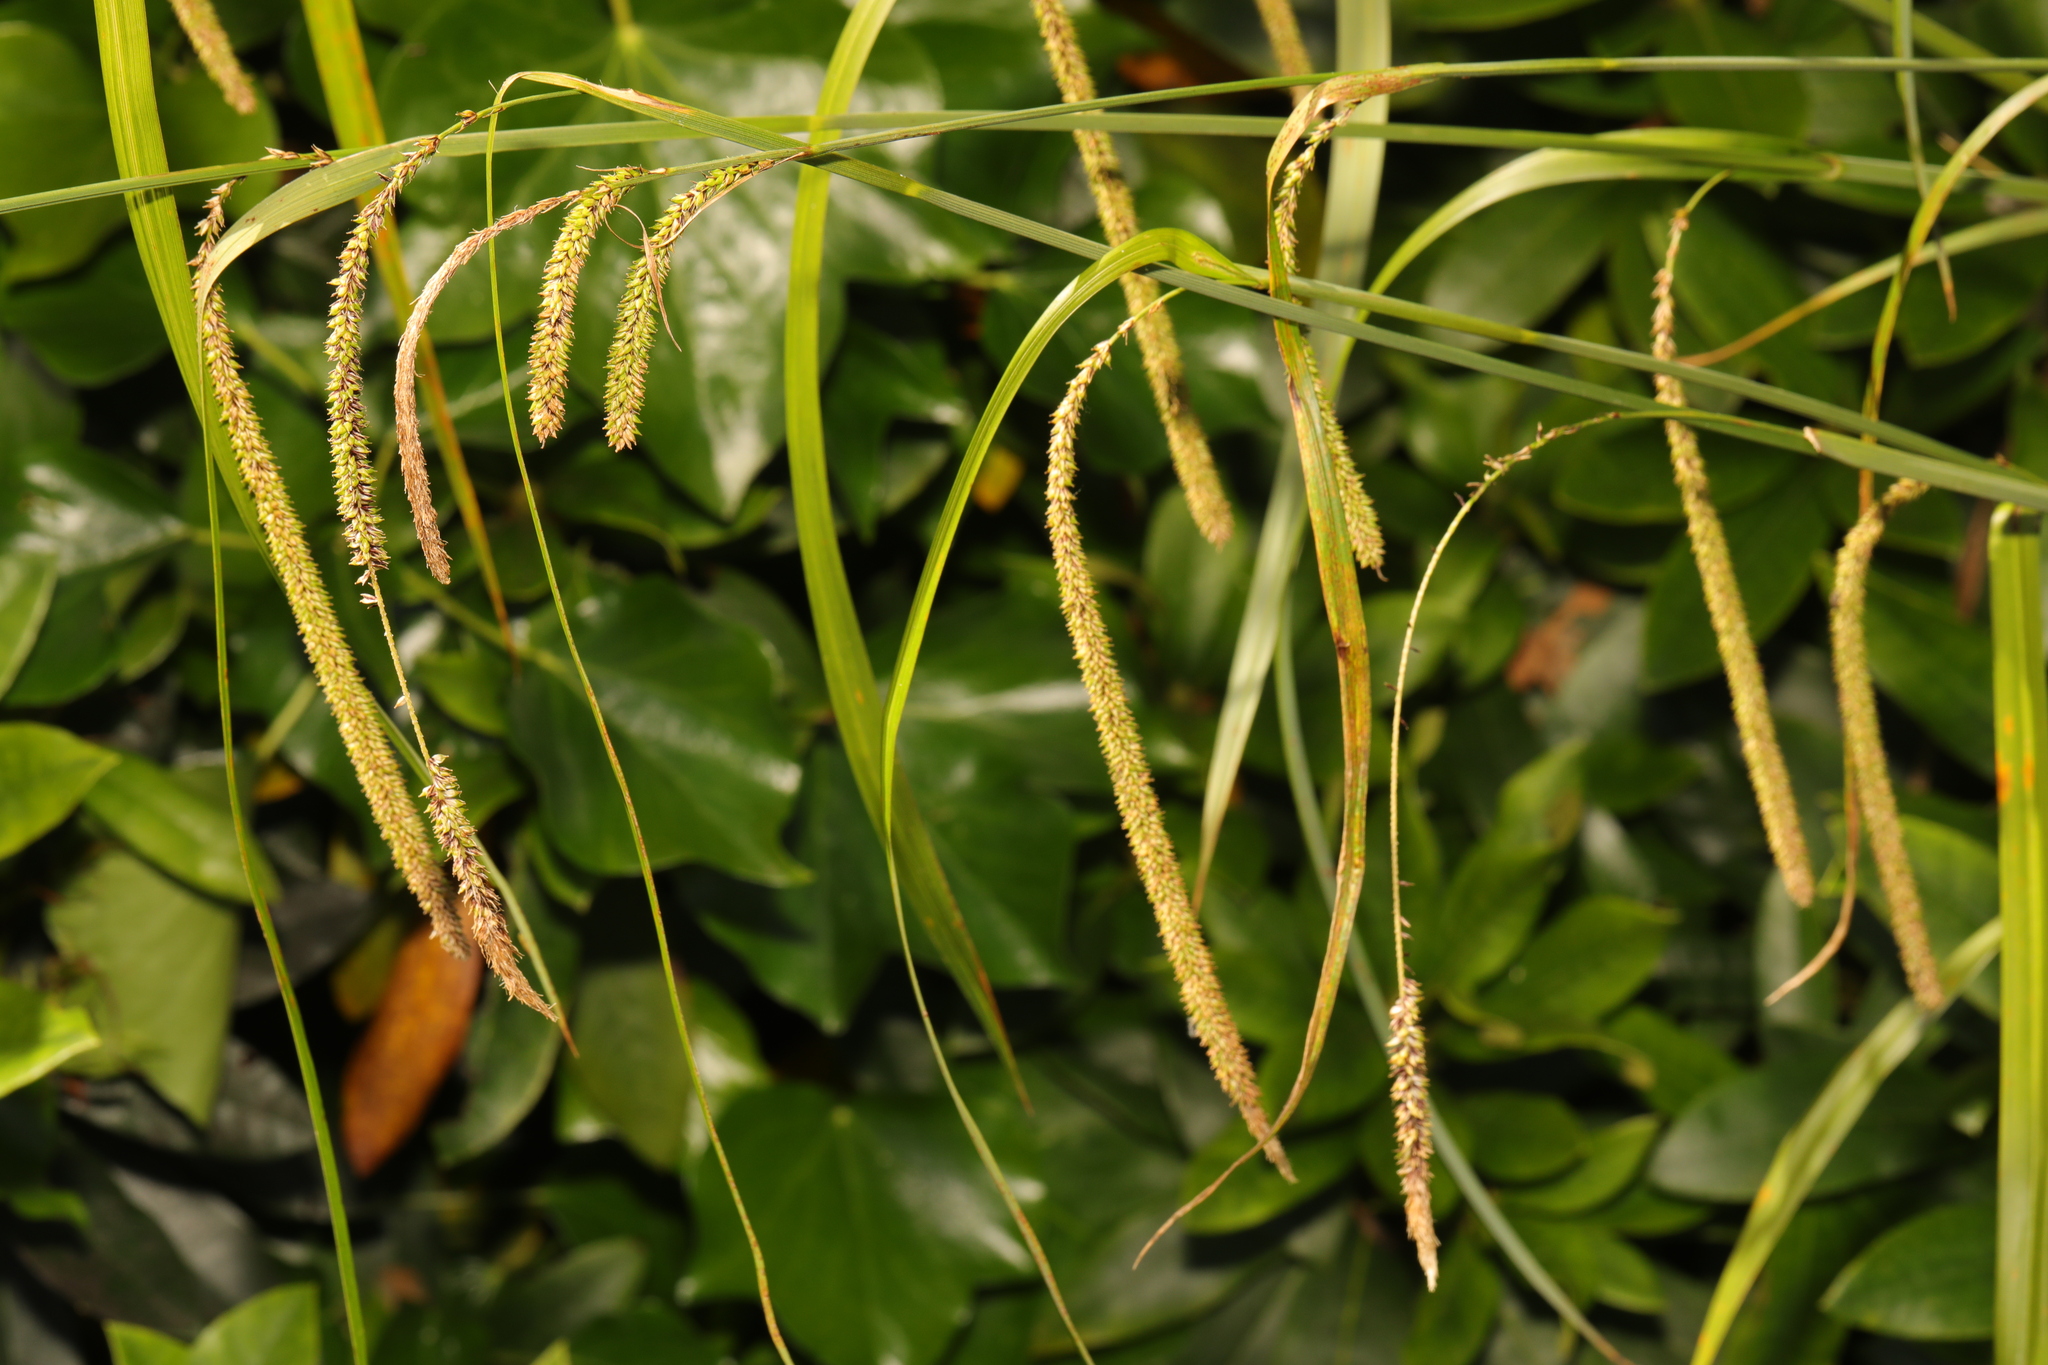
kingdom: Plantae
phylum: Tracheophyta
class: Liliopsida
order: Poales
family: Cyperaceae
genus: Carex
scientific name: Carex pendula
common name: Pendulous sedge
